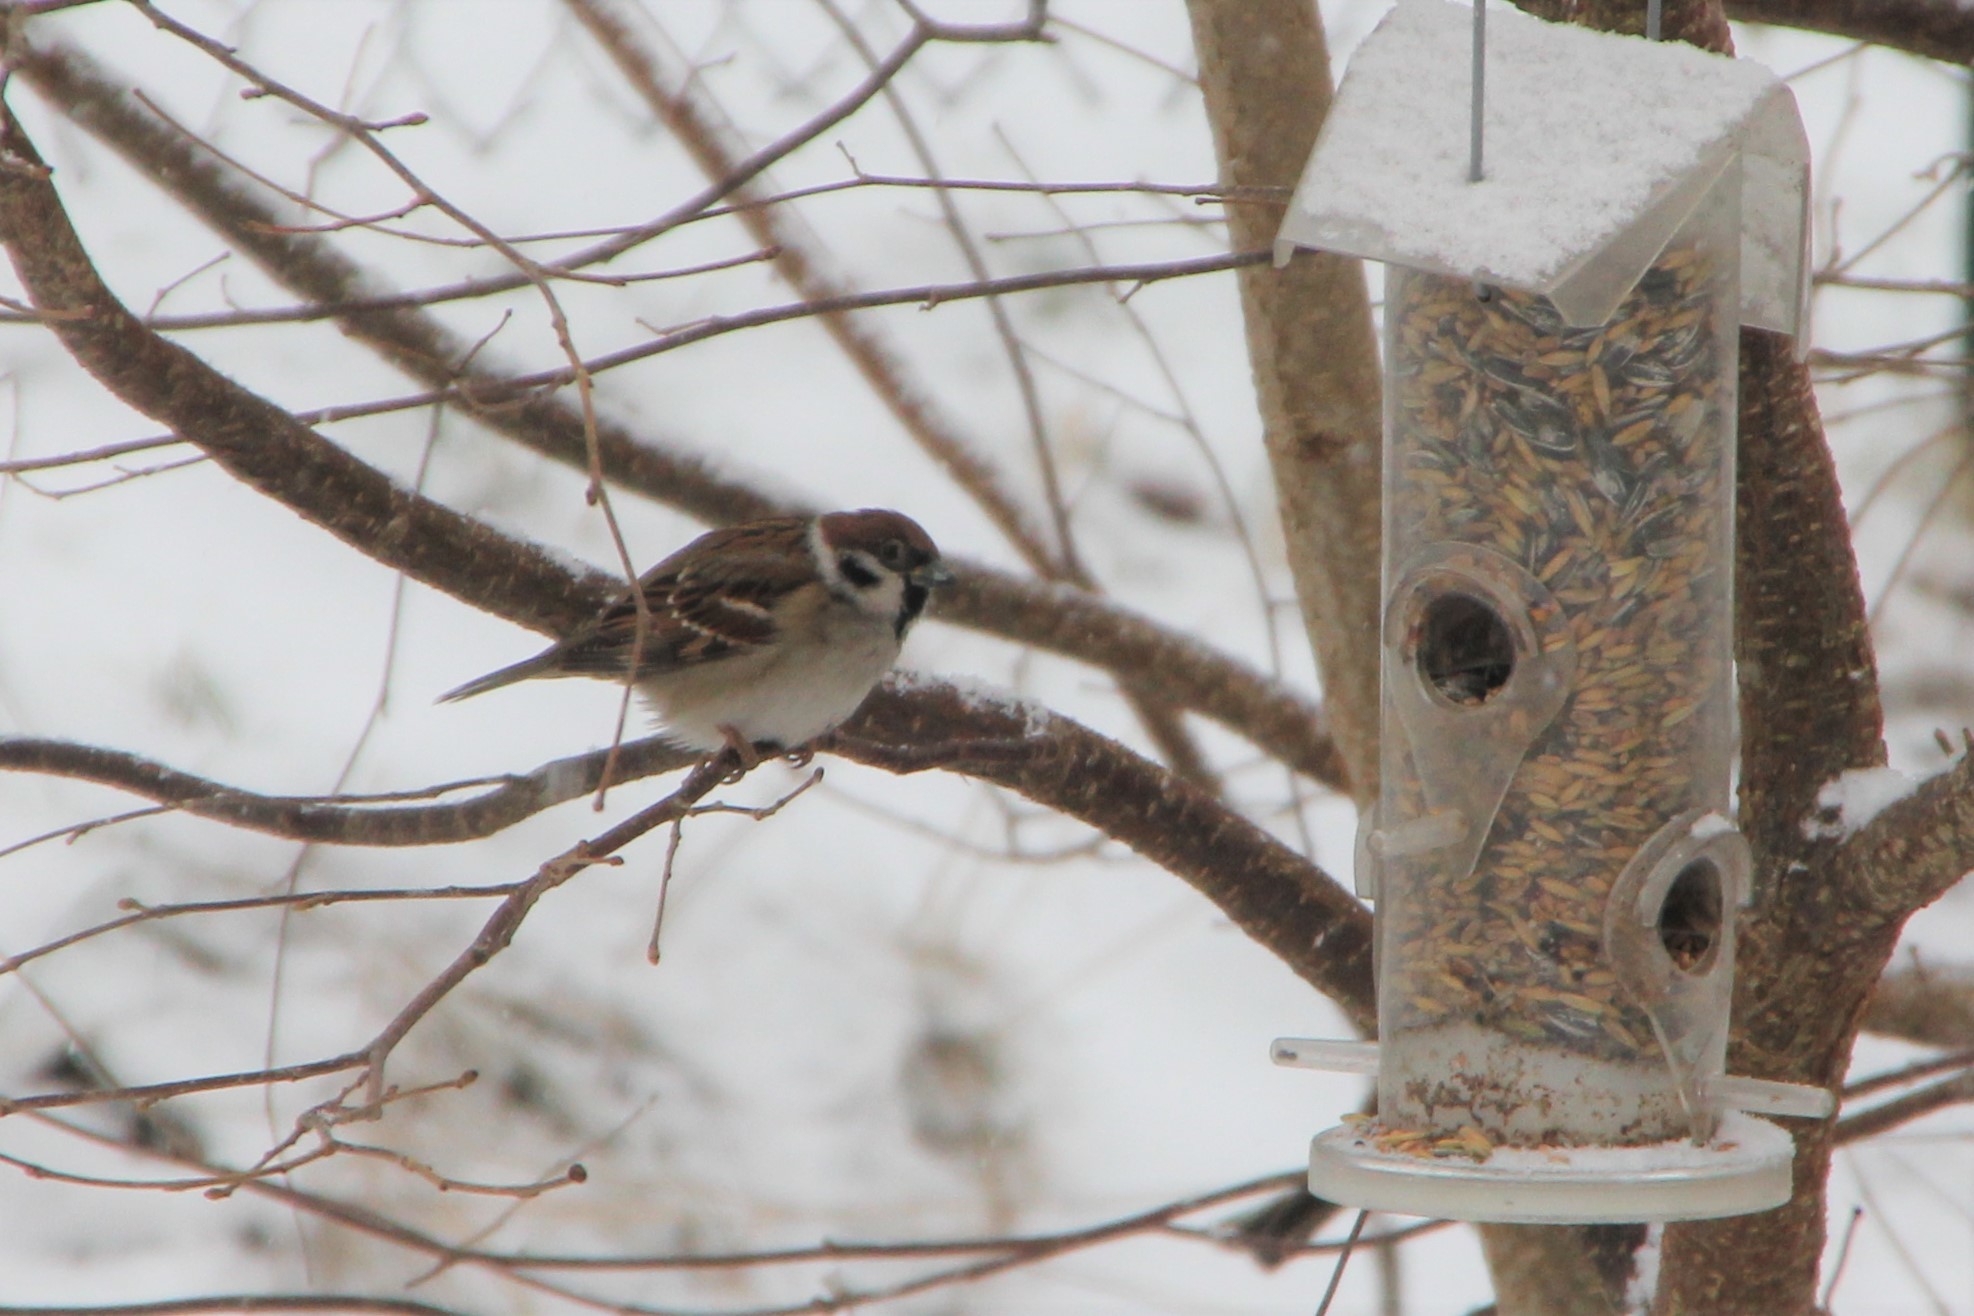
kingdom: Animalia
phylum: Chordata
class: Aves
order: Passeriformes
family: Passeridae
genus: Passer
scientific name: Passer montanus
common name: Eurasian tree sparrow
